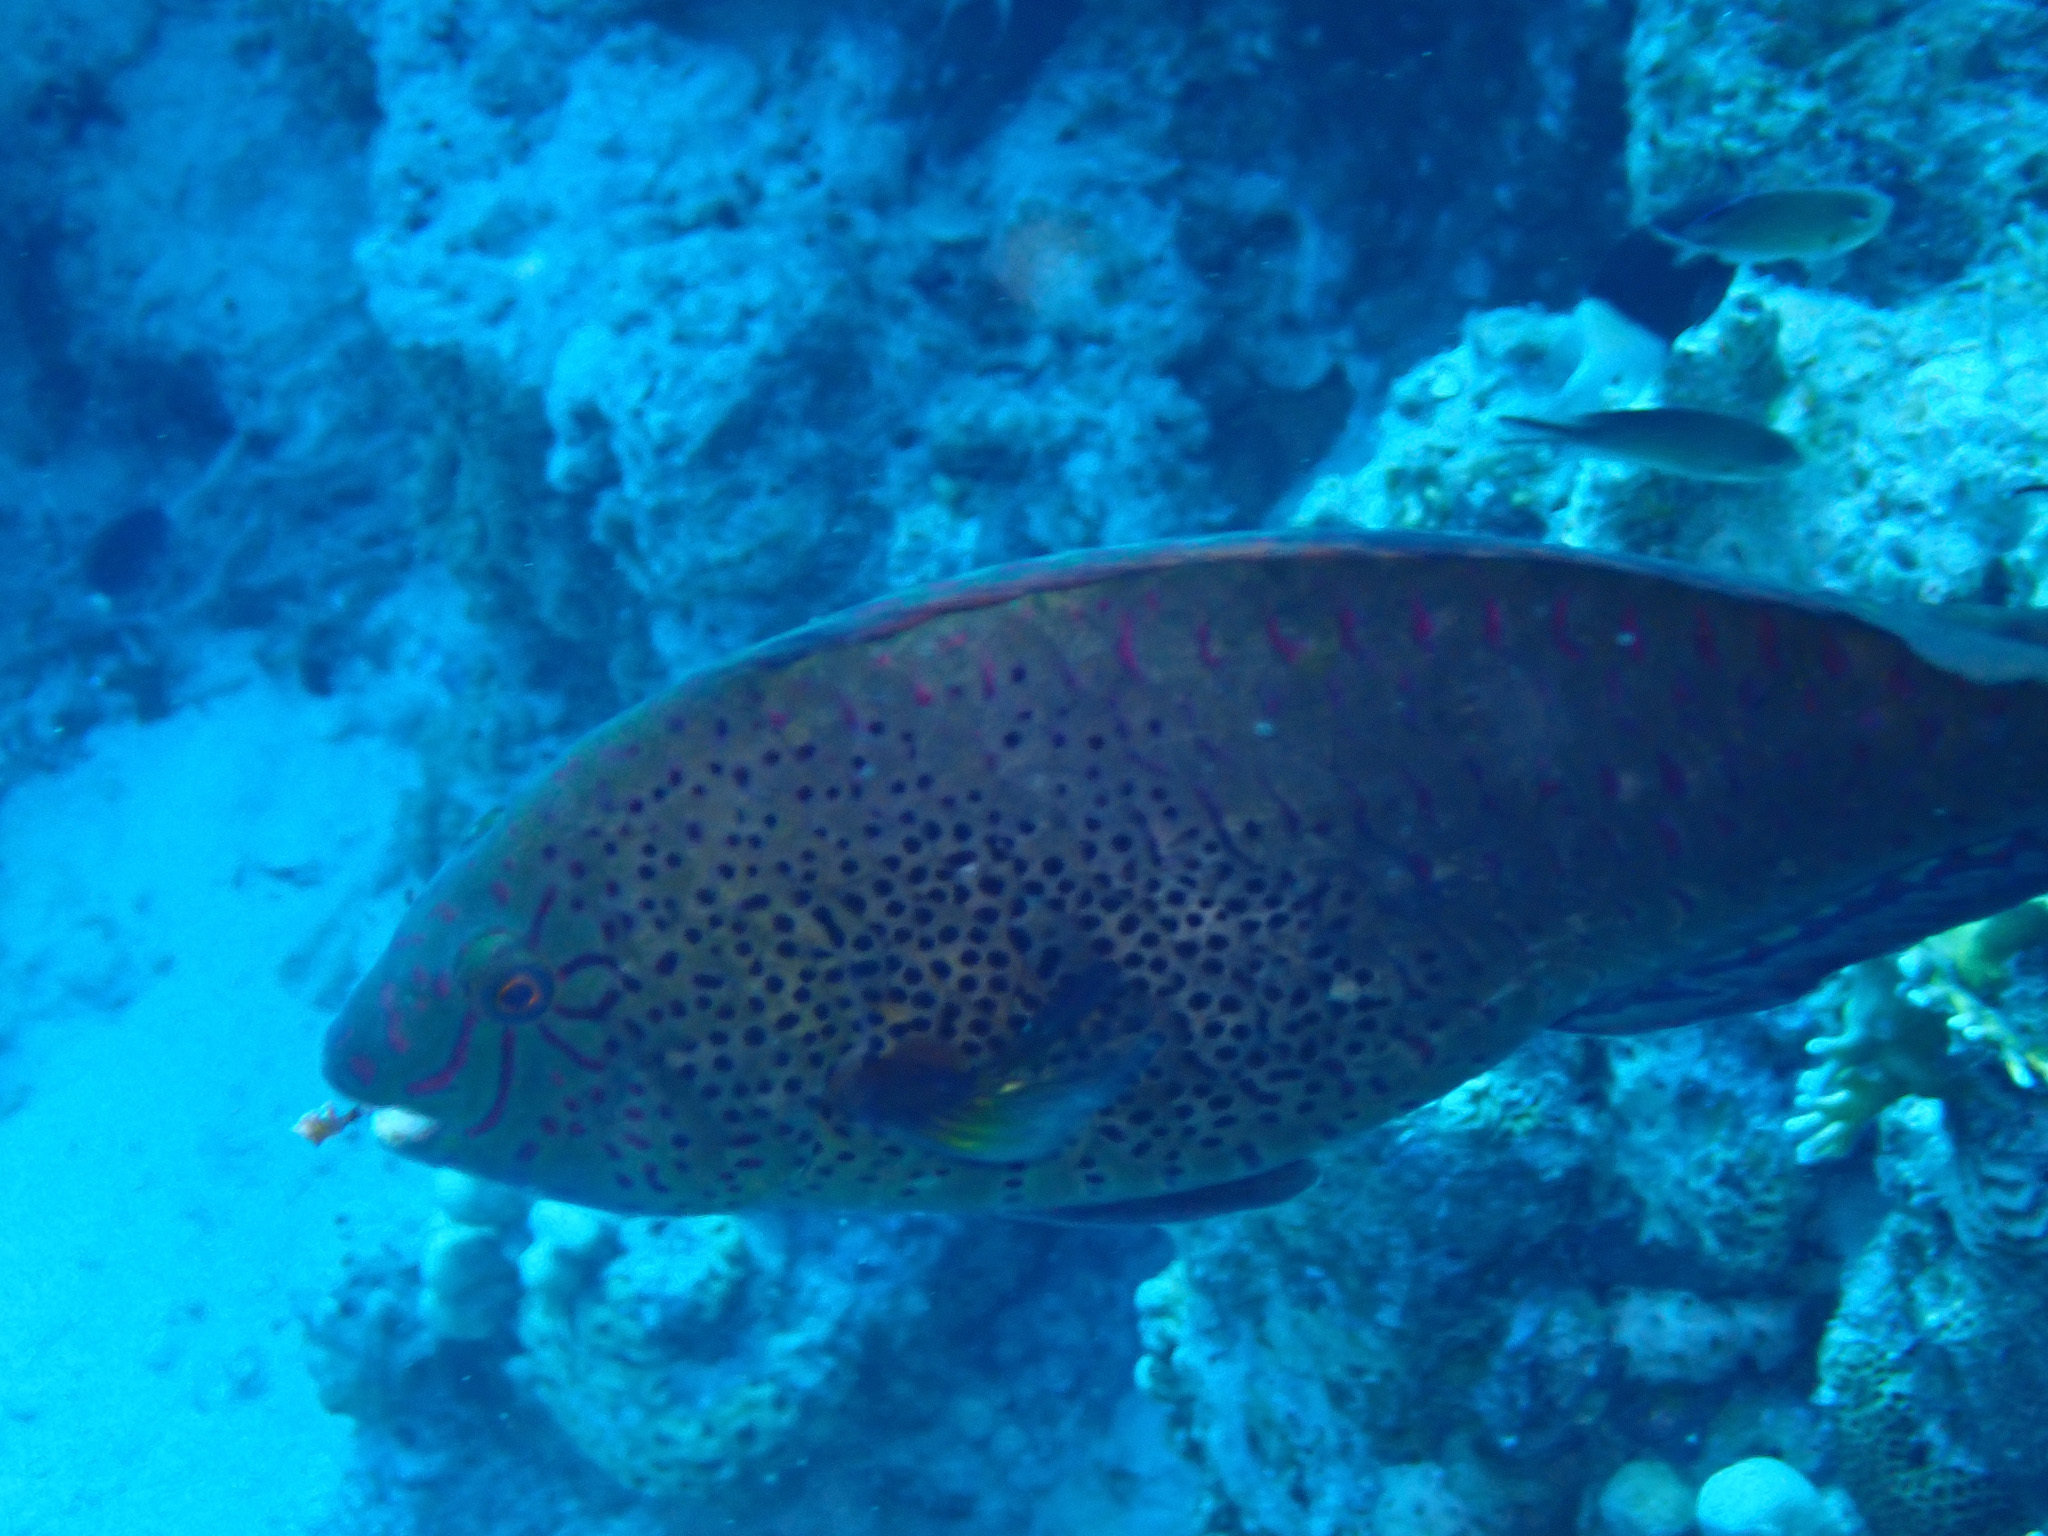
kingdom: Animalia
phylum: Chordata
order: Perciformes
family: Scaridae
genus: Calotomus
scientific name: Calotomus viridescens
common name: Dotted parrotfish
